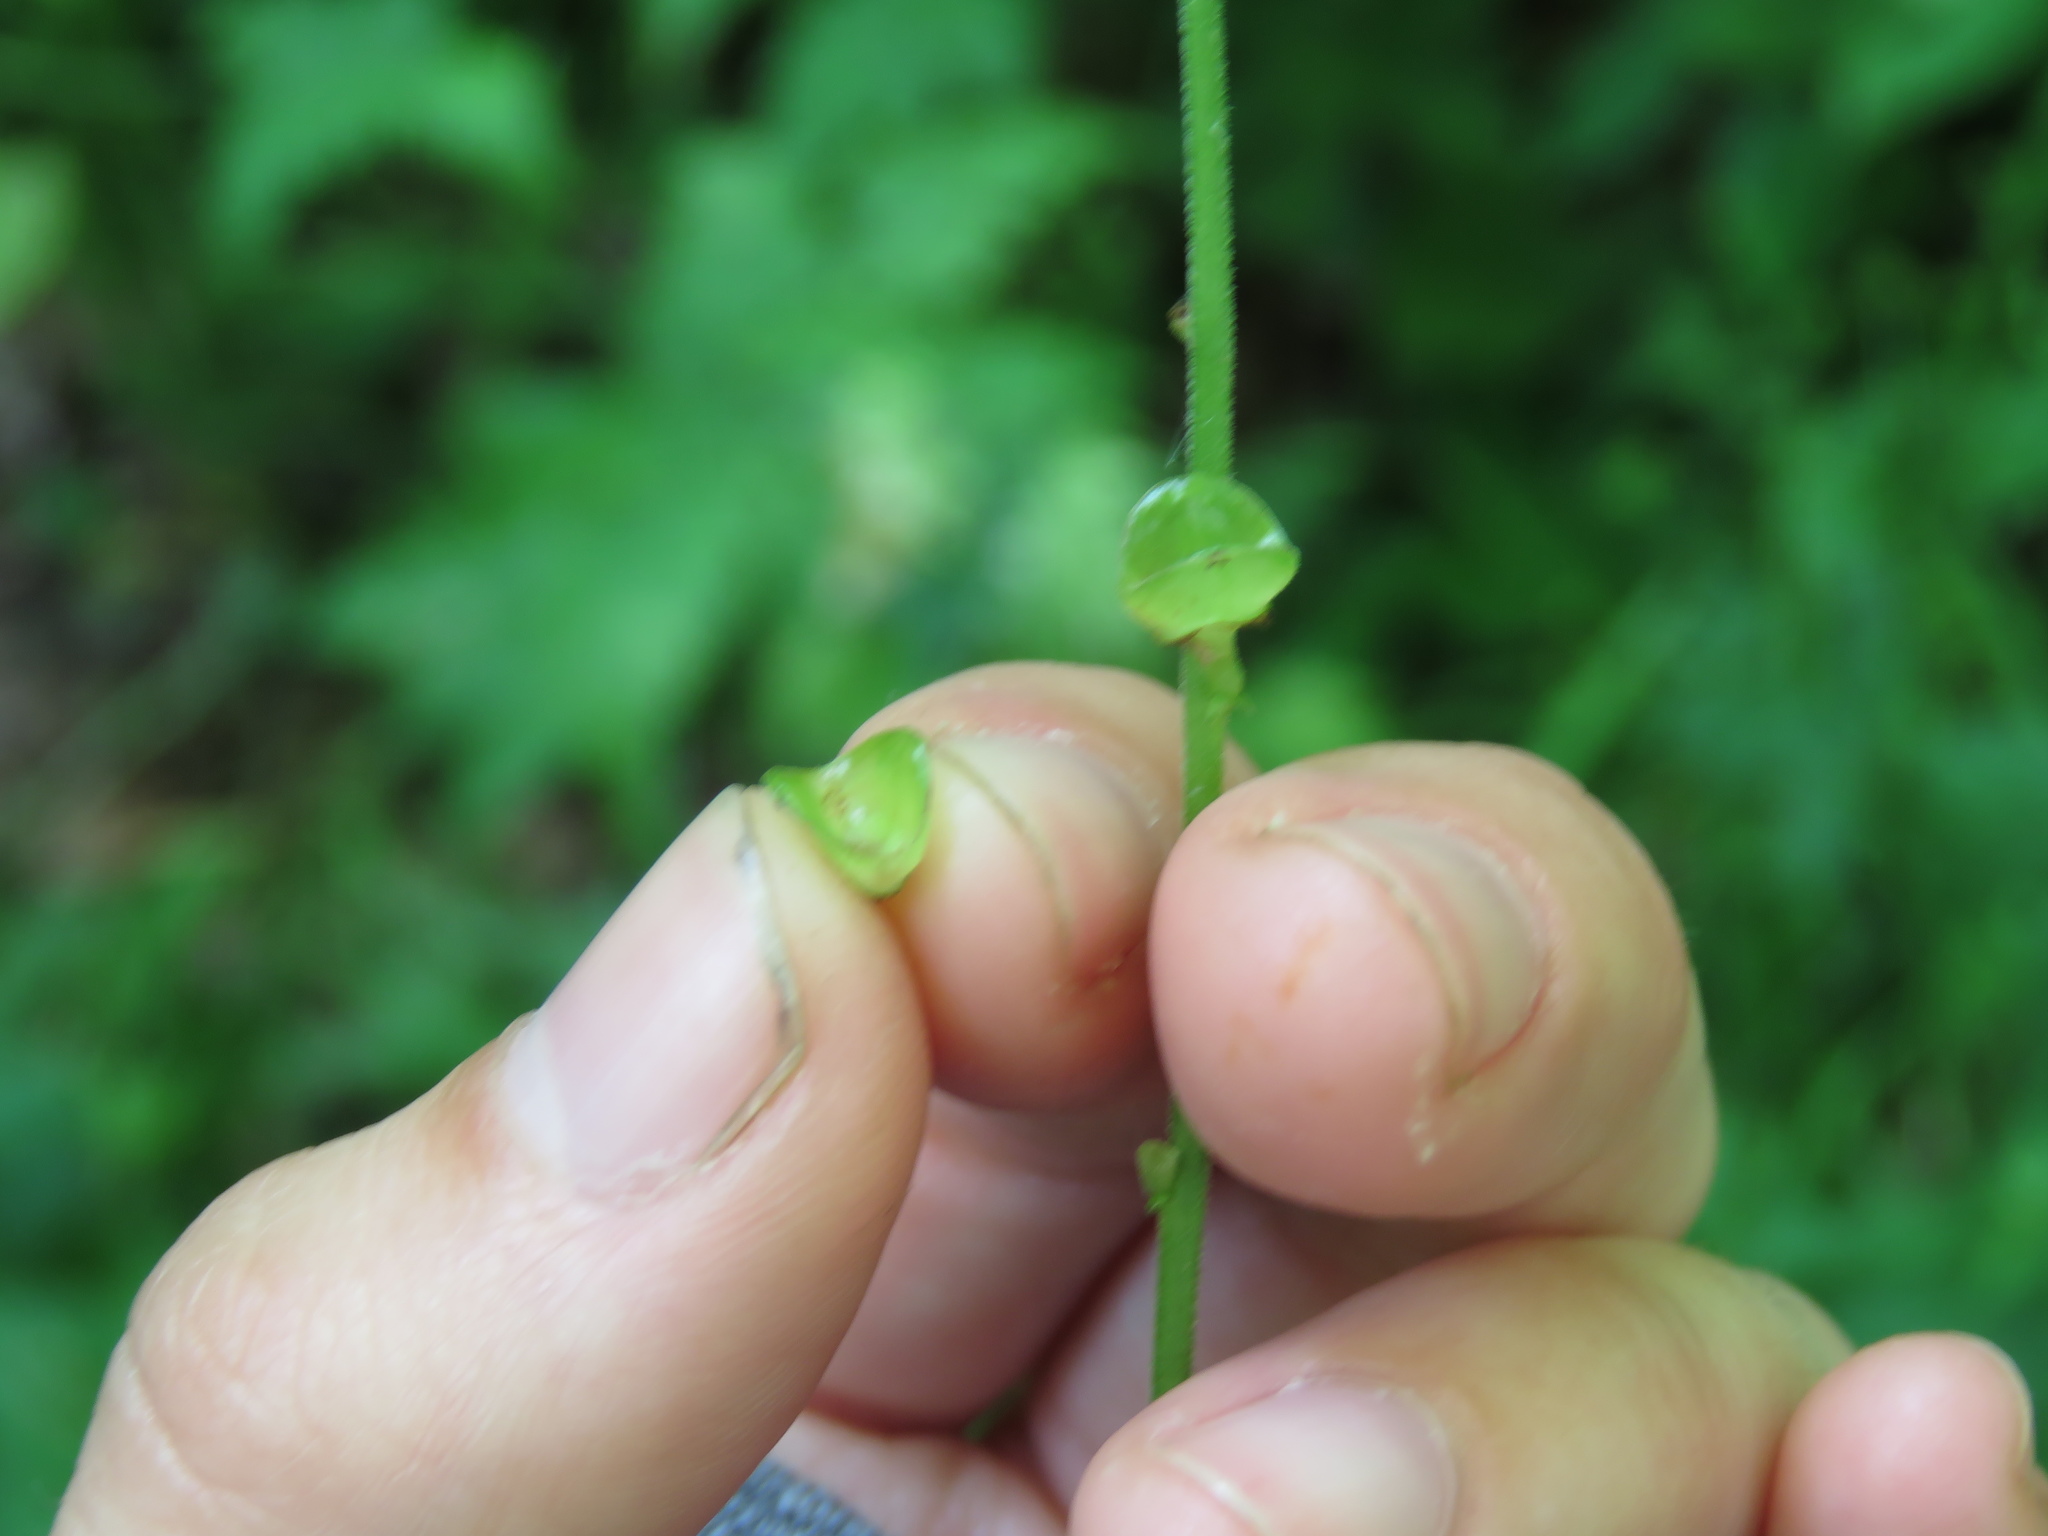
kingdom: Plantae
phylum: Tracheophyta
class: Magnoliopsida
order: Saxifragales
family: Saxifragaceae
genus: Mitella
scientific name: Mitella diphylla
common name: Coolwort
